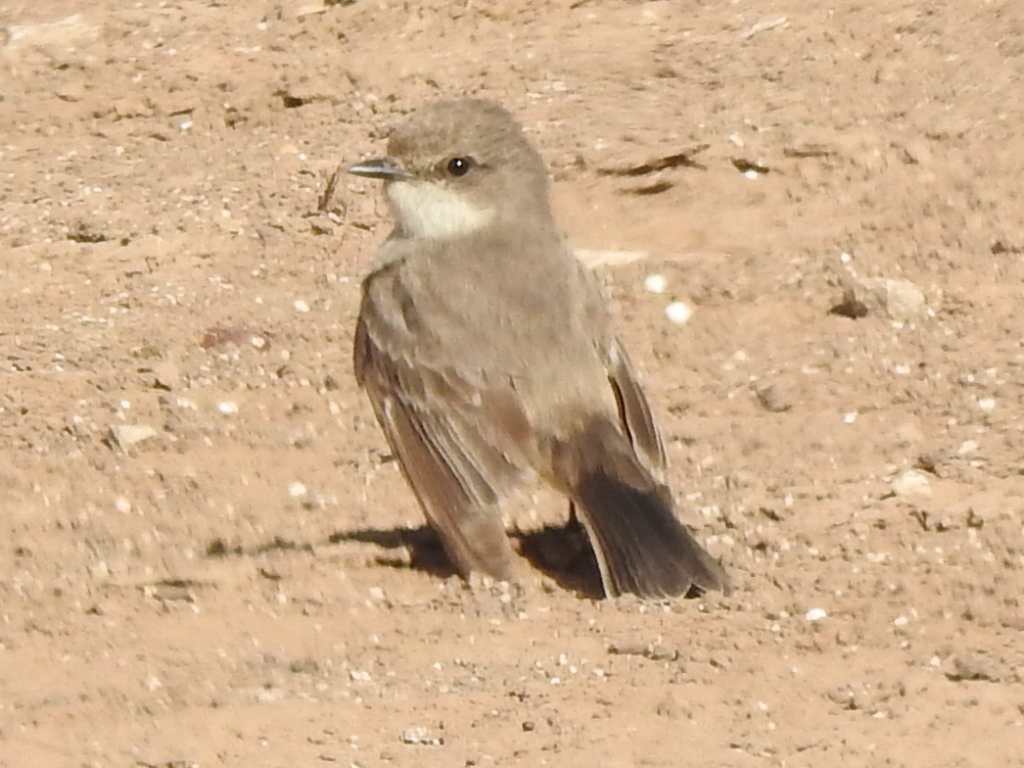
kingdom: Animalia
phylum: Chordata
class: Aves
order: Passeriformes
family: Tyrannidae
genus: Pyrocephalus
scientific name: Pyrocephalus rubinus
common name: Vermilion flycatcher
